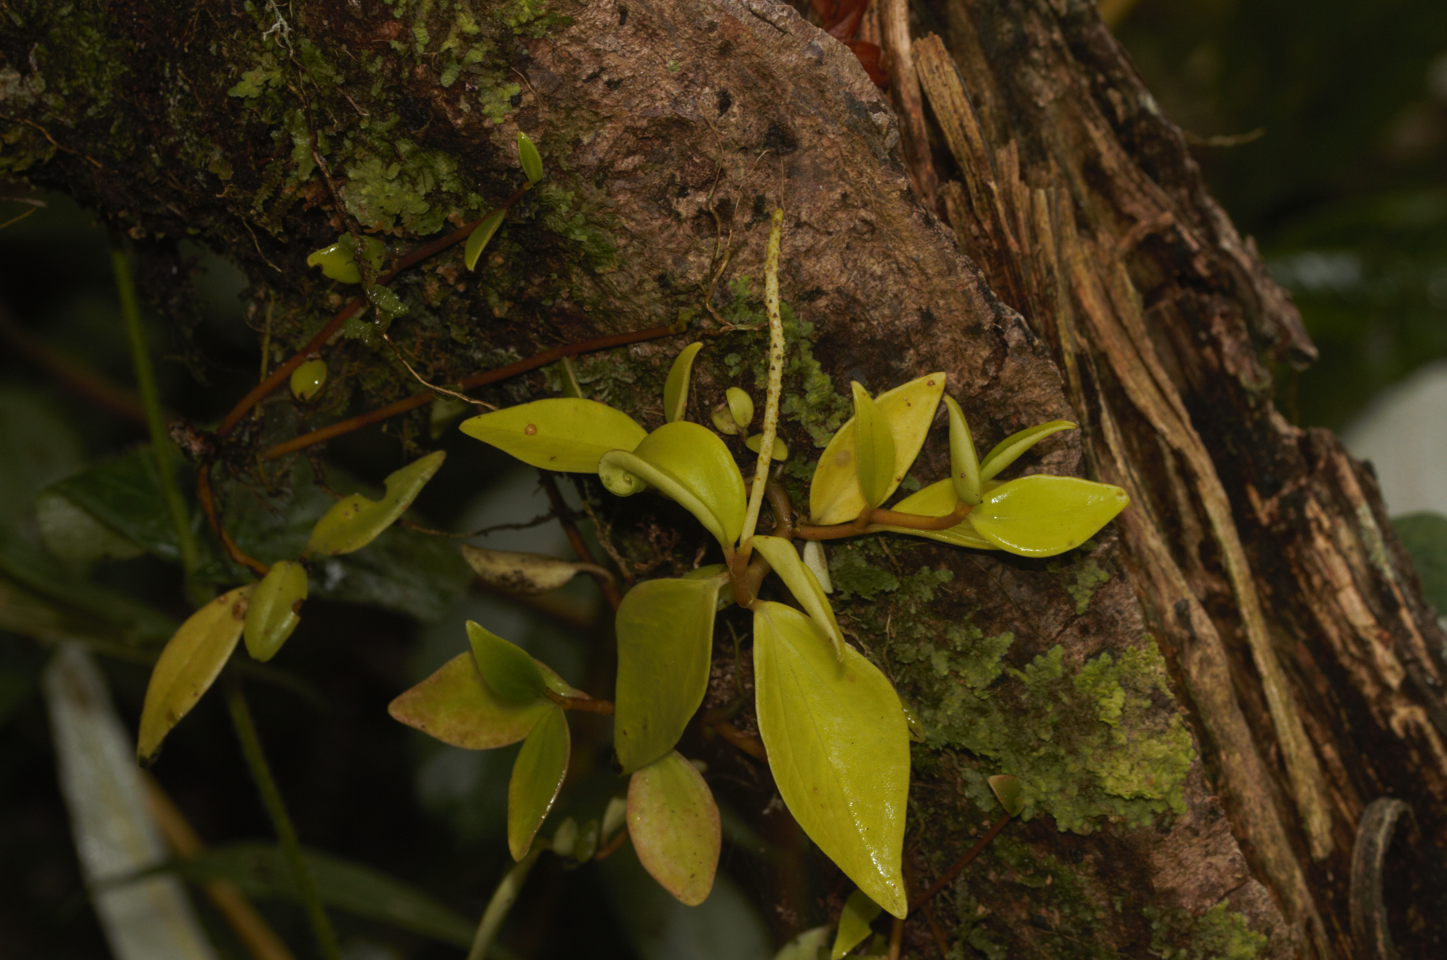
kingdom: Plantae
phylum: Tracheophyta
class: Magnoliopsida
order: Piperales
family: Piperaceae
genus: Peperomia
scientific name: Peperomia glabella
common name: Cypress peperomia
